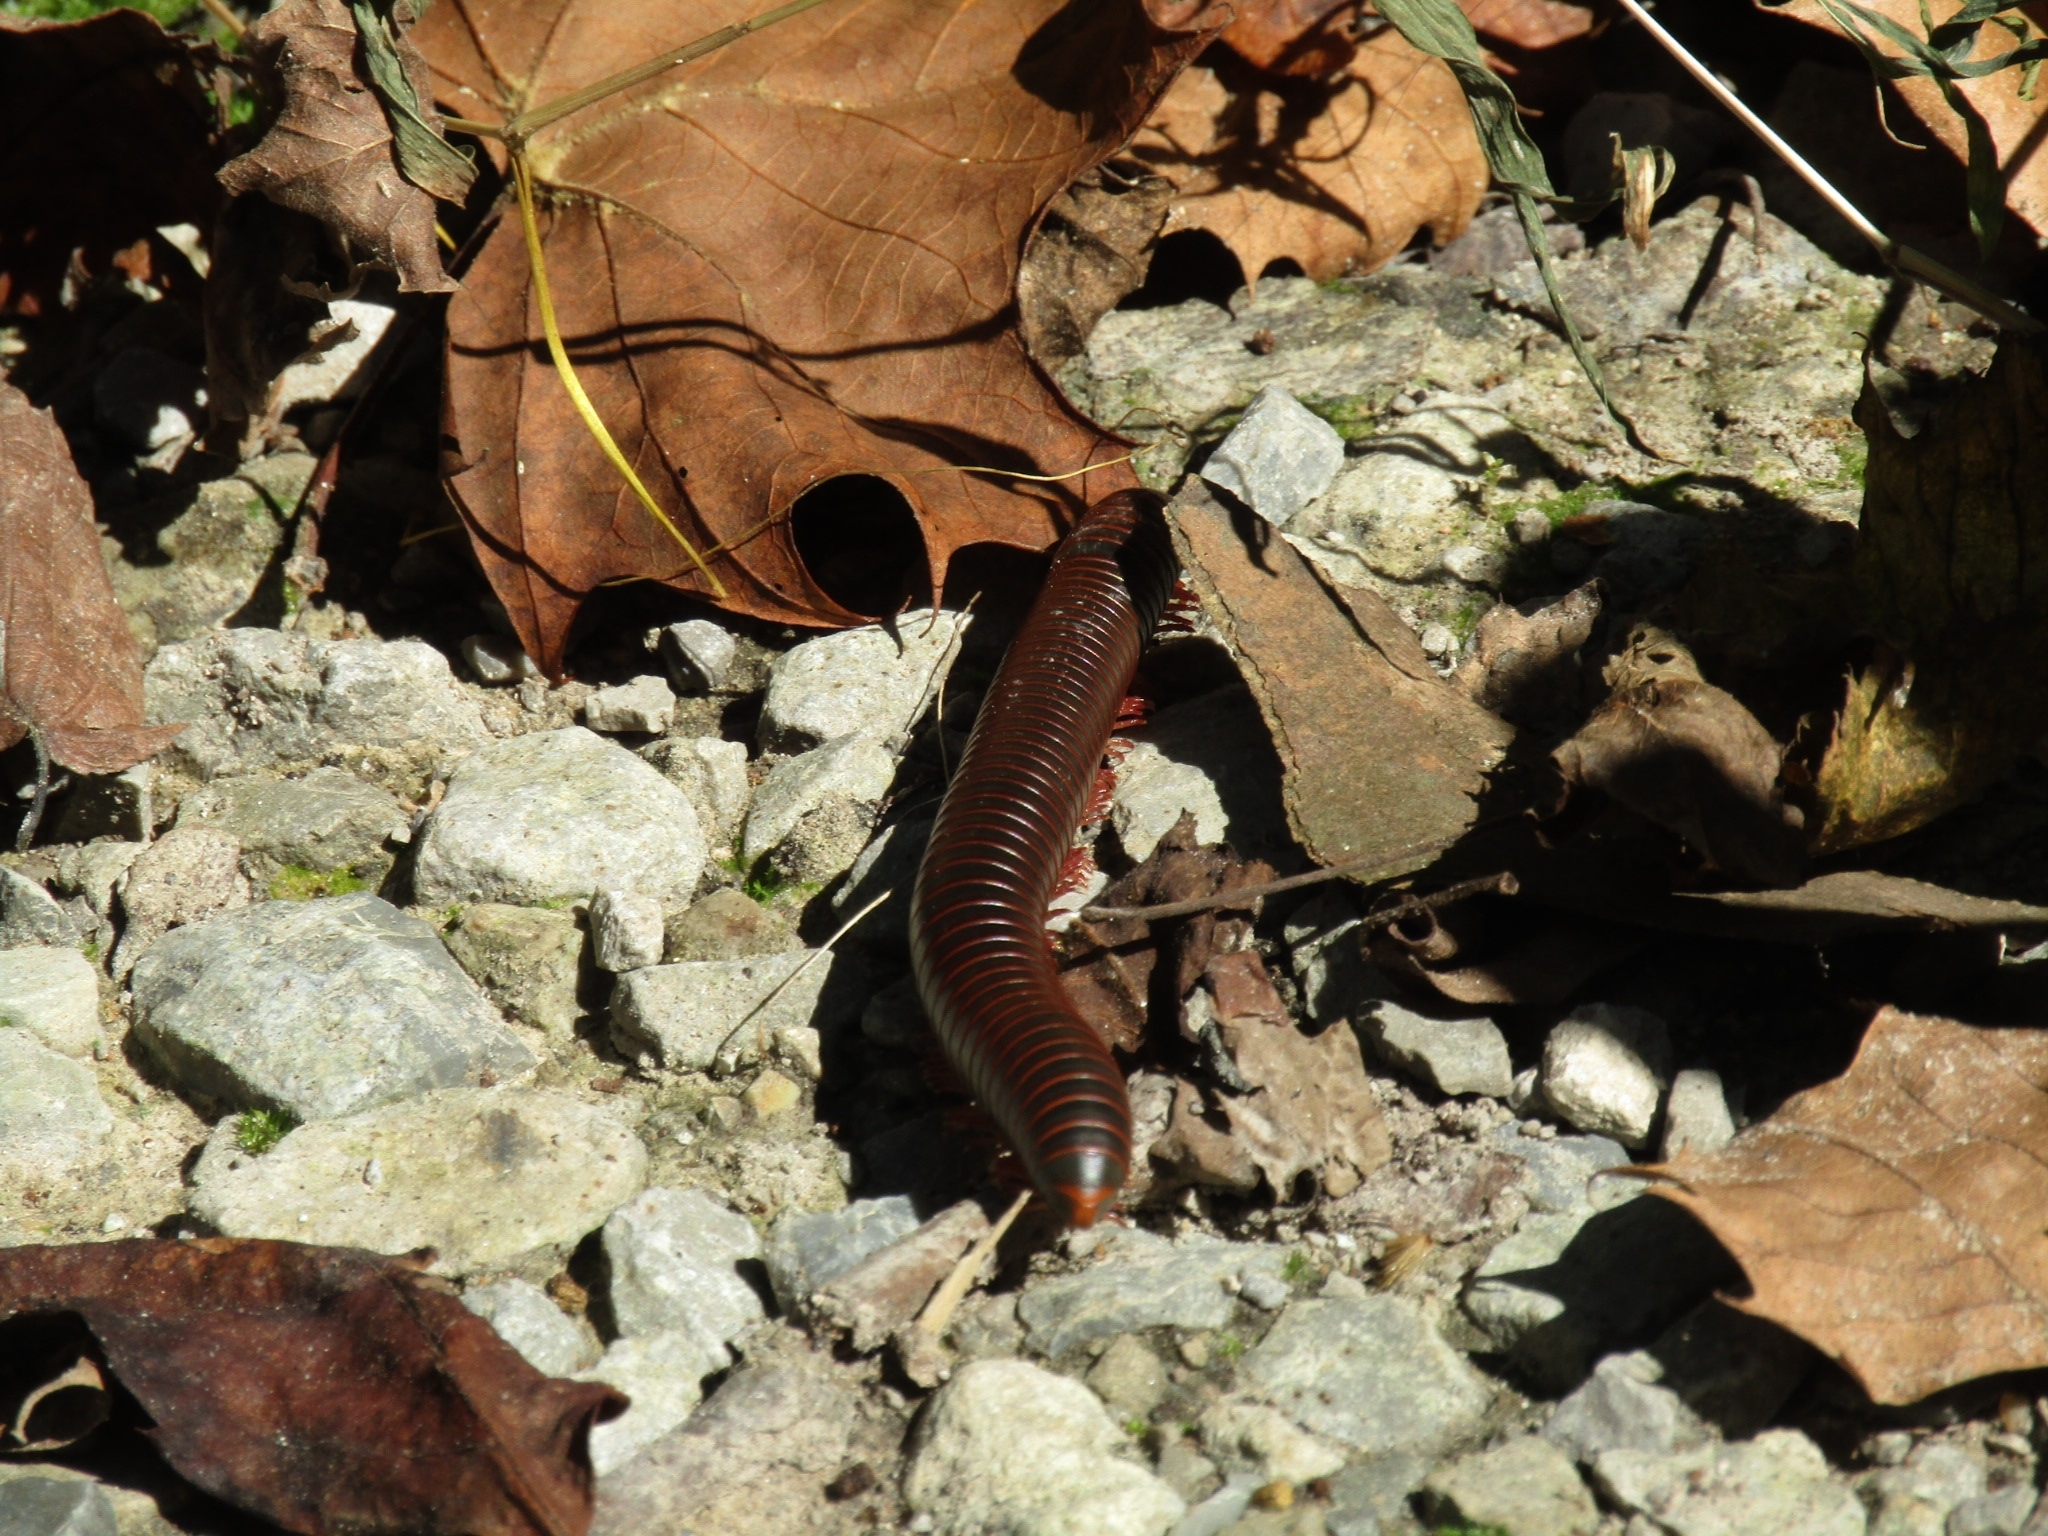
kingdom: Animalia
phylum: Arthropoda
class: Diplopoda
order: Spirobolida
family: Spirobolidae
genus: Narceus
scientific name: Narceus
